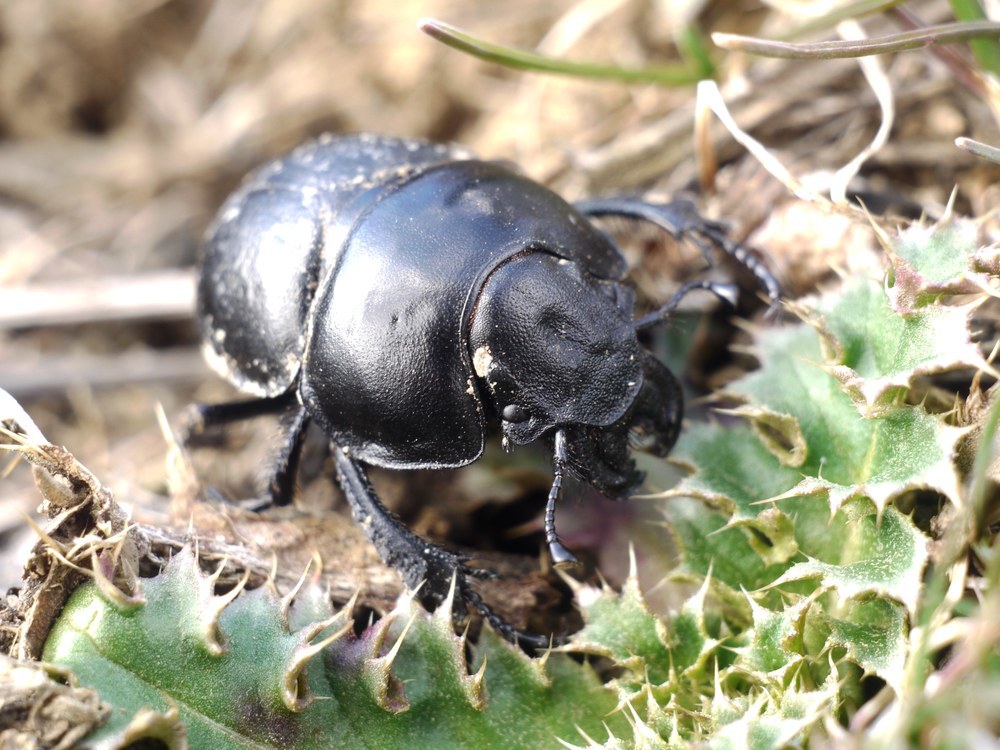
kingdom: Animalia
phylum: Arthropoda
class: Insecta
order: Coleoptera
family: Geotrupidae
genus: Lethrus
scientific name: Lethrus apterus
